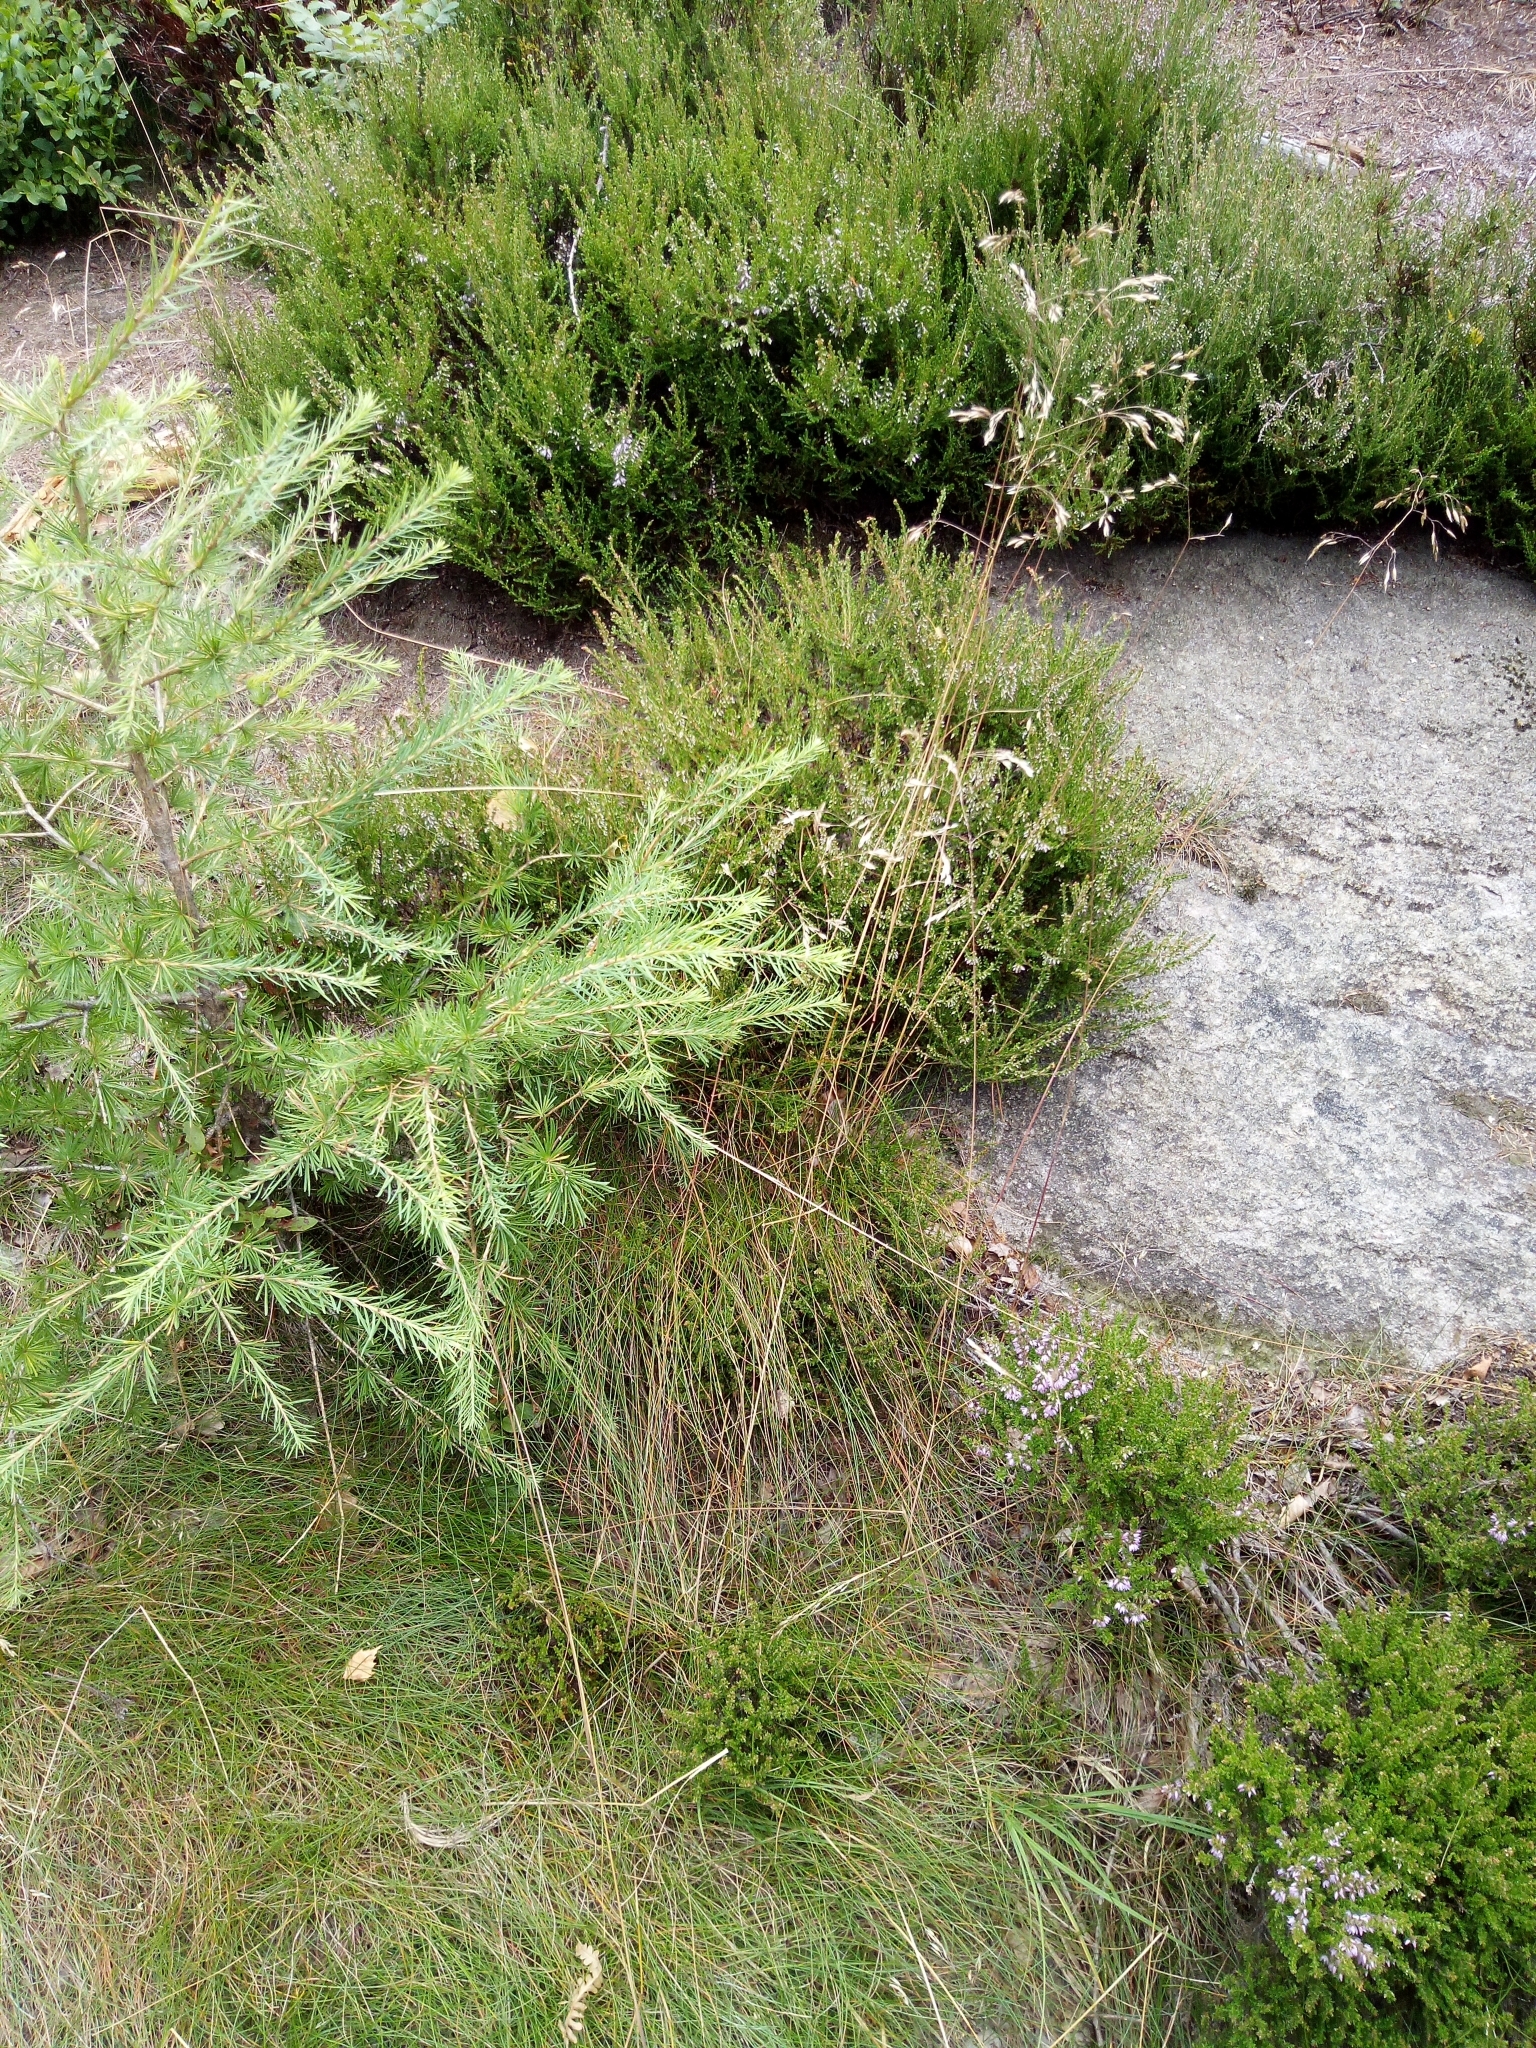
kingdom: Plantae
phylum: Tracheophyta
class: Liliopsida
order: Poales
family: Poaceae
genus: Avenella
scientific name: Avenella flexuosa
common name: Wavy hairgrass
